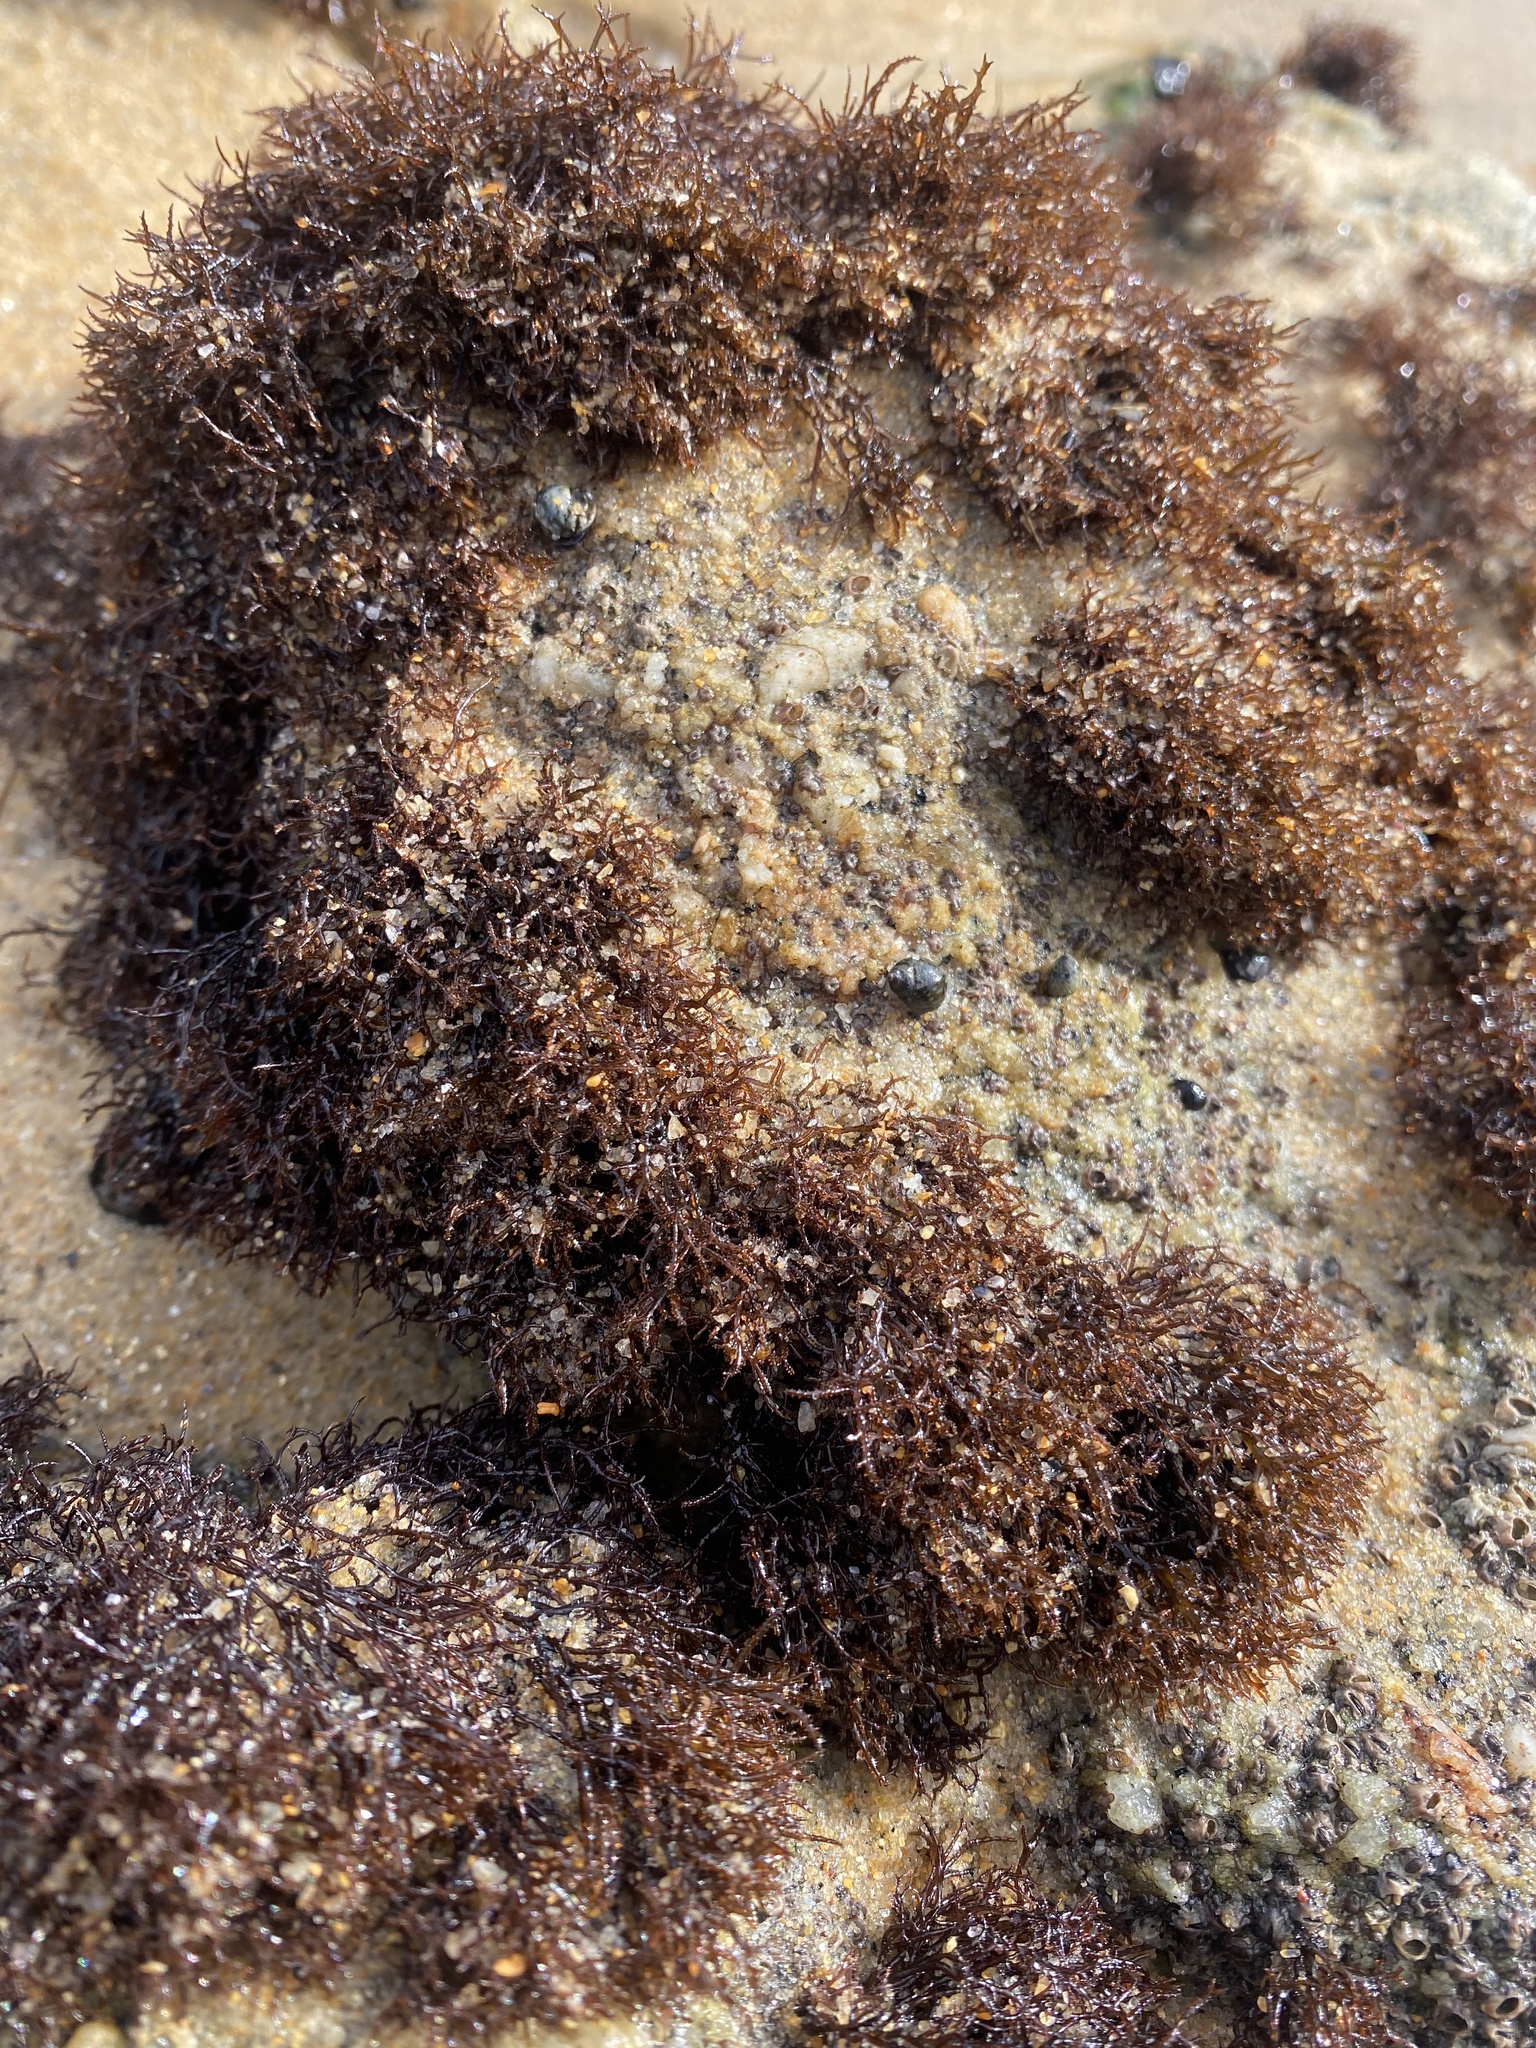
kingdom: Plantae
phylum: Rhodophyta
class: Florideophyceae
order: Gigartinales
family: Endocladiaceae
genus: Endocladia
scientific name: Endocladia muricata
